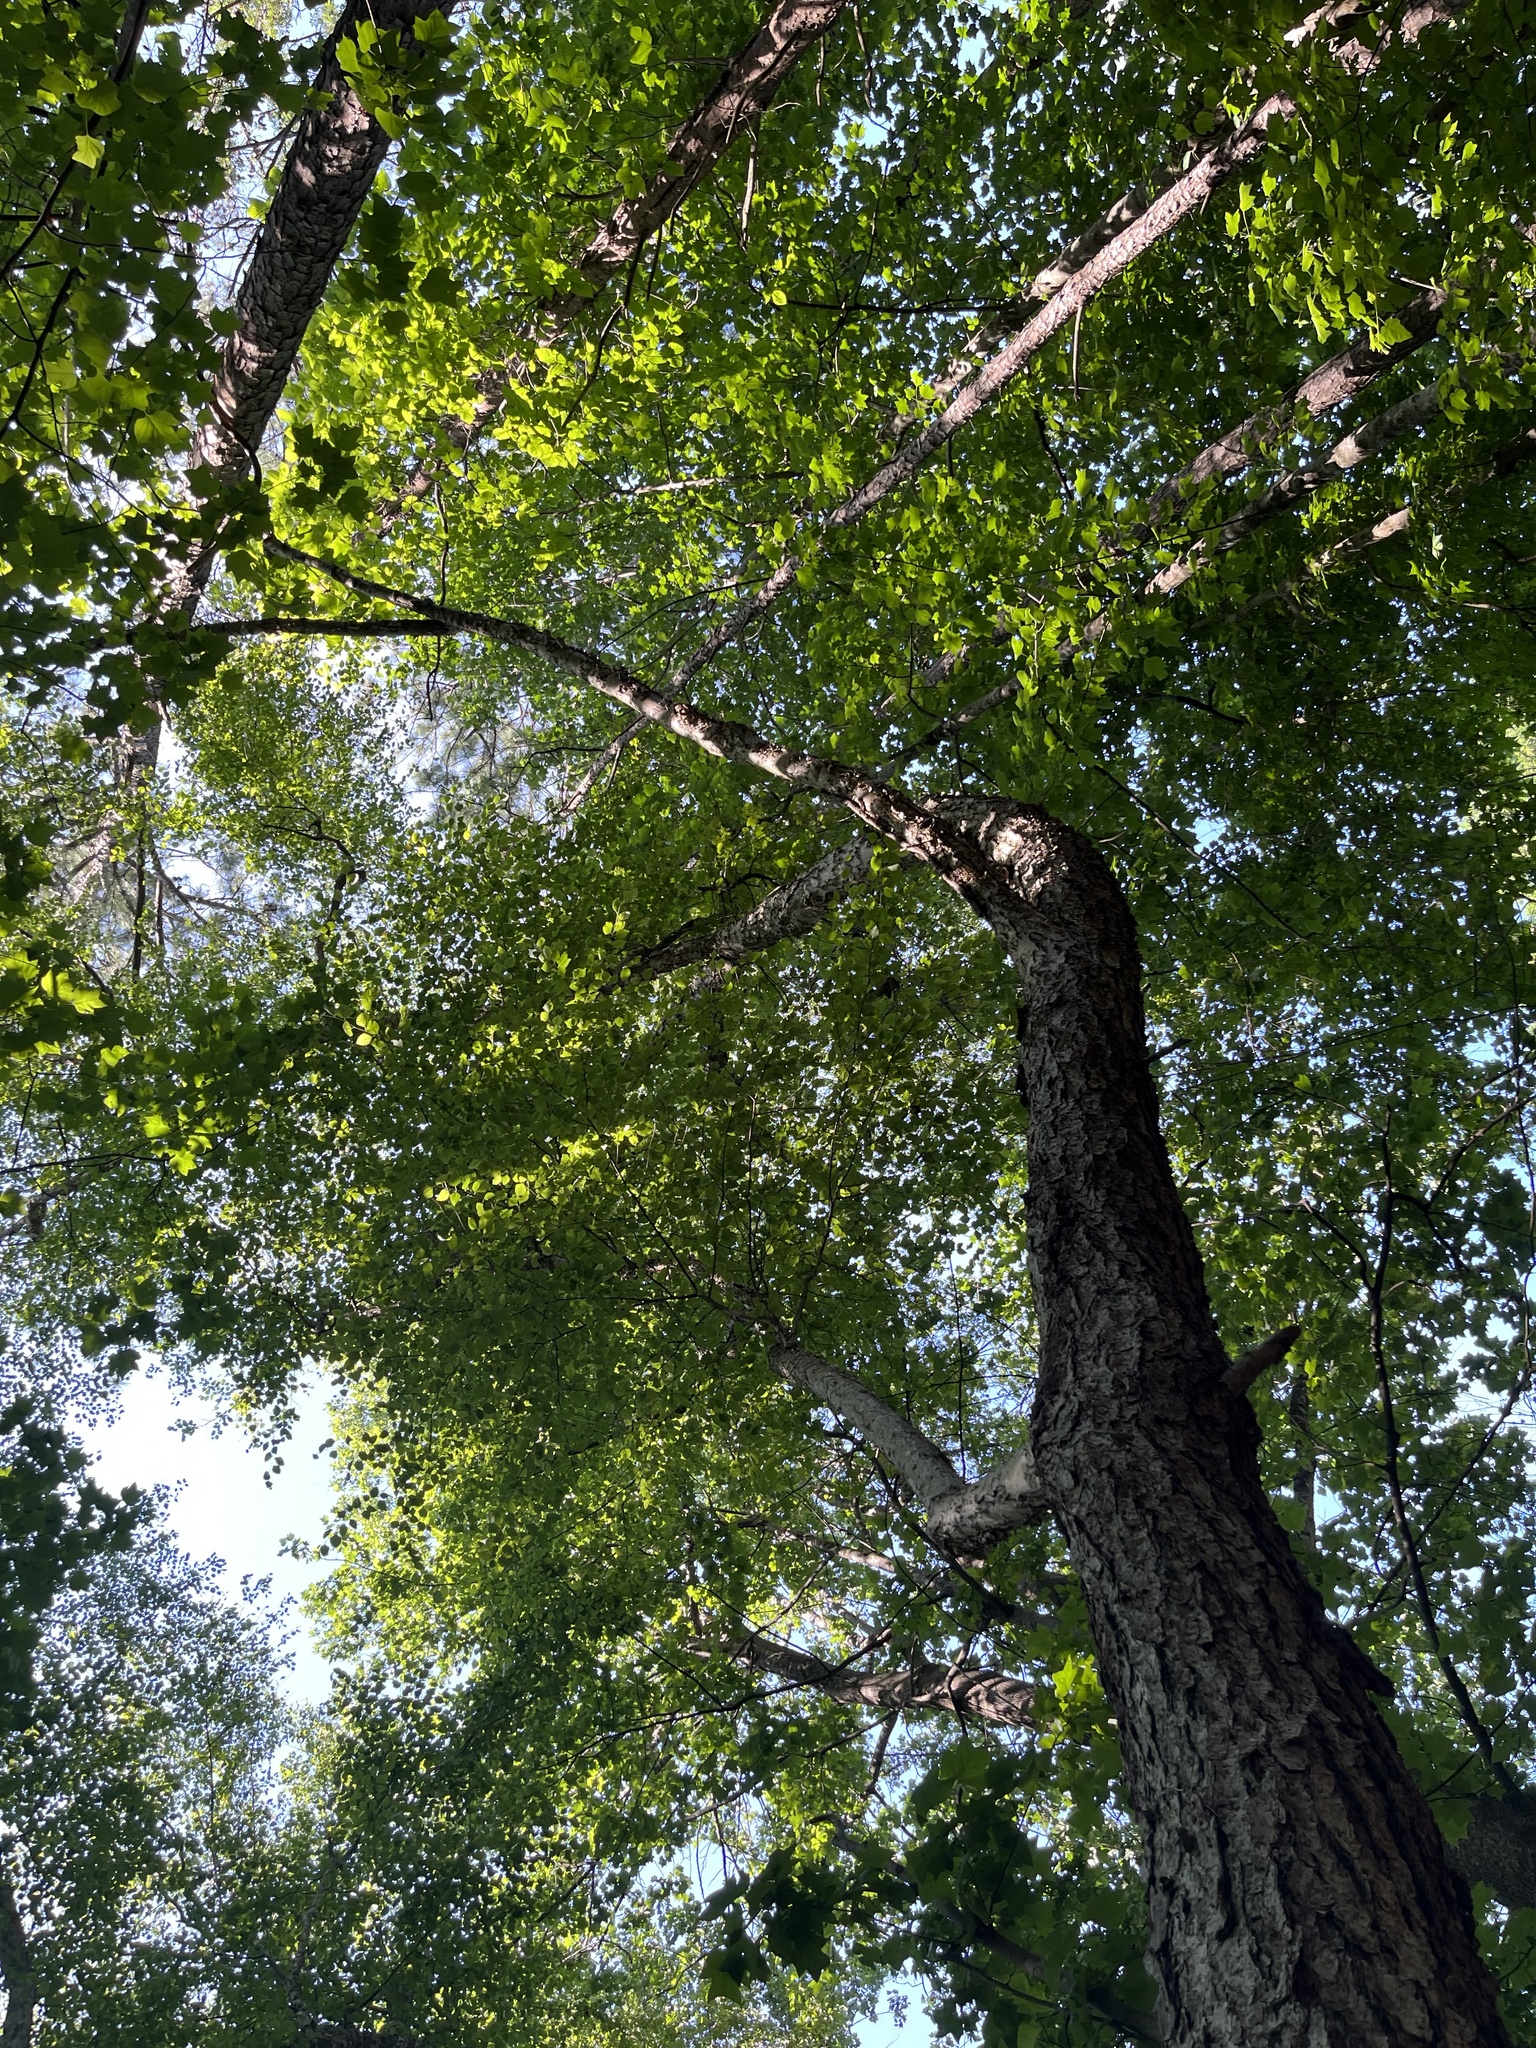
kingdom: Plantae
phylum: Tracheophyta
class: Magnoliopsida
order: Fagales
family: Betulaceae
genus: Betula
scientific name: Betula nigra
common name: Black birch
